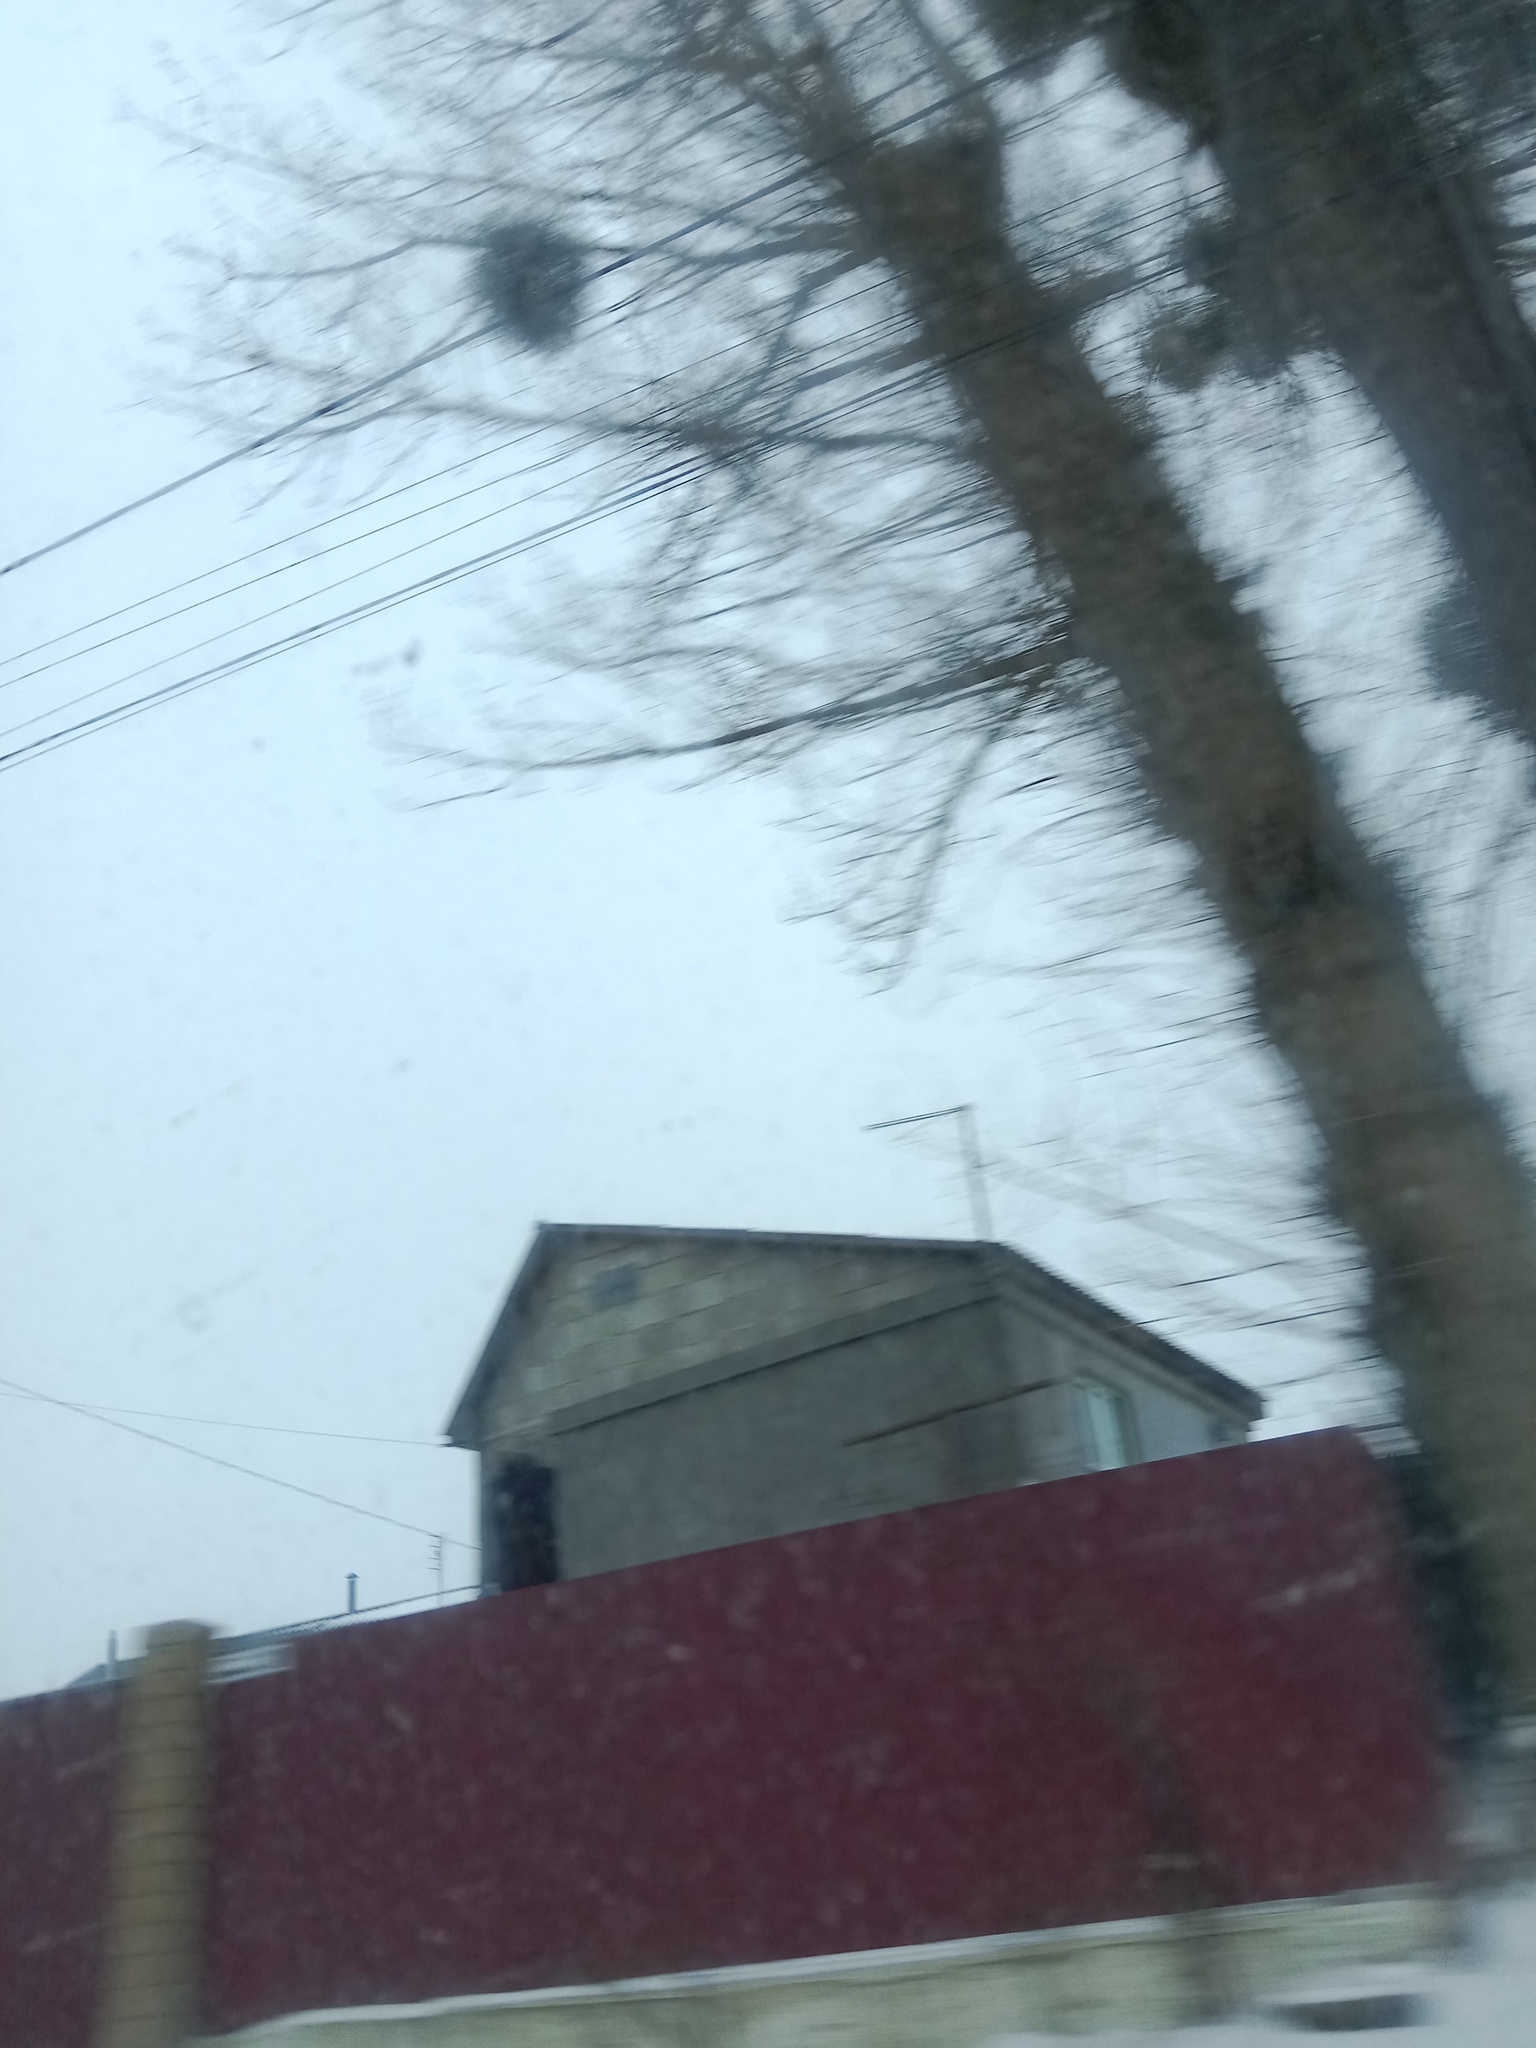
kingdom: Plantae
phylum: Tracheophyta
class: Magnoliopsida
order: Santalales
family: Viscaceae
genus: Viscum
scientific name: Viscum album
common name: Mistletoe
